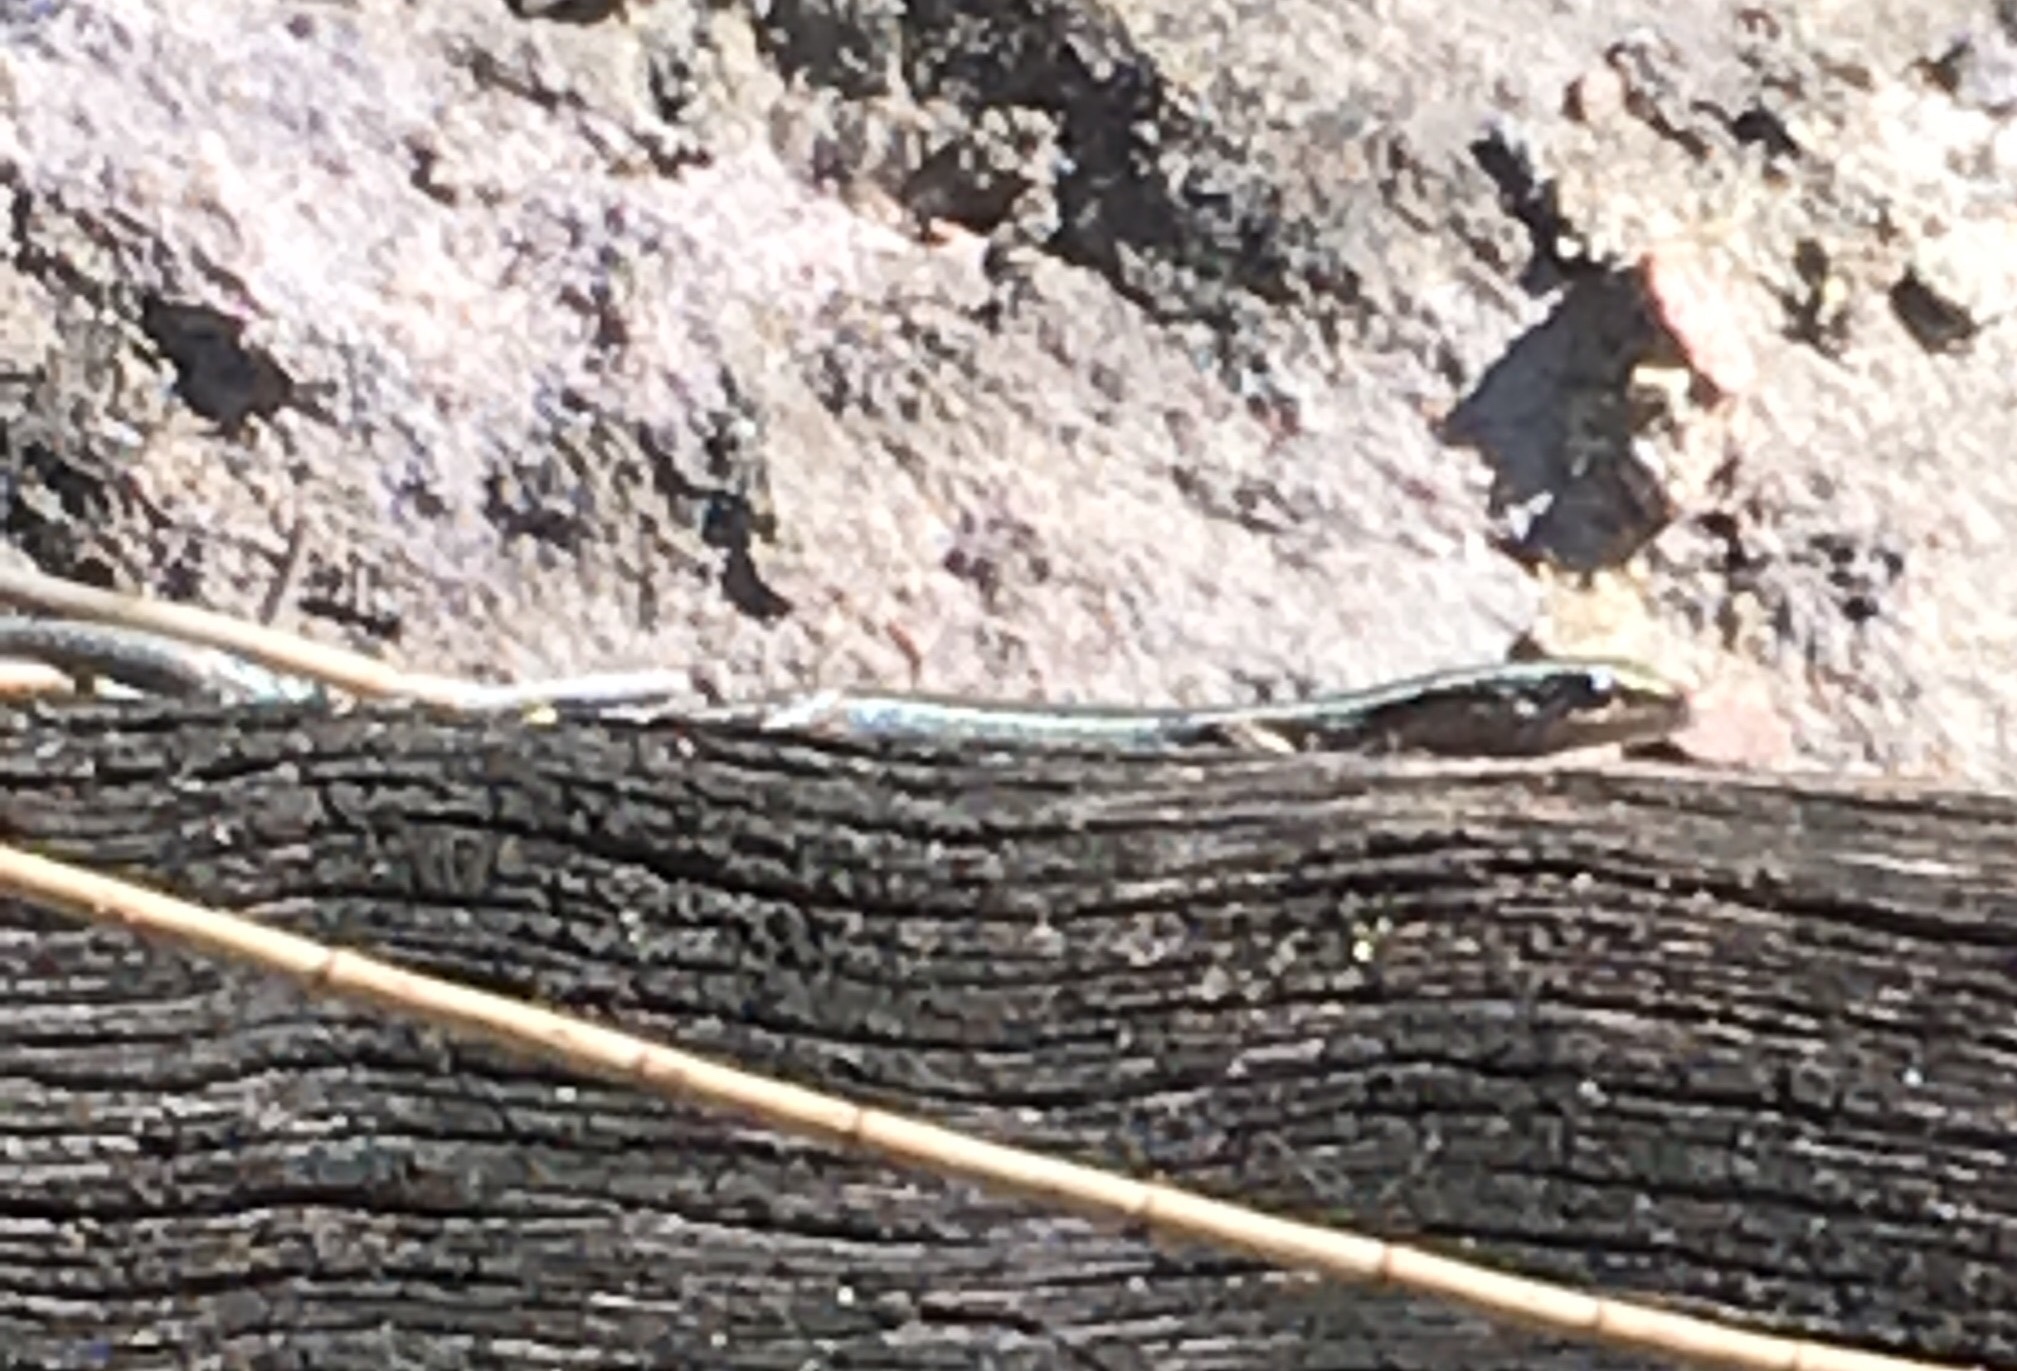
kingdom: Animalia
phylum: Chordata
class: Squamata
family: Scincidae
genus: Cryptoblepharus
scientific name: Cryptoblepharus pulcher
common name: Elegant snake-eyed skink
